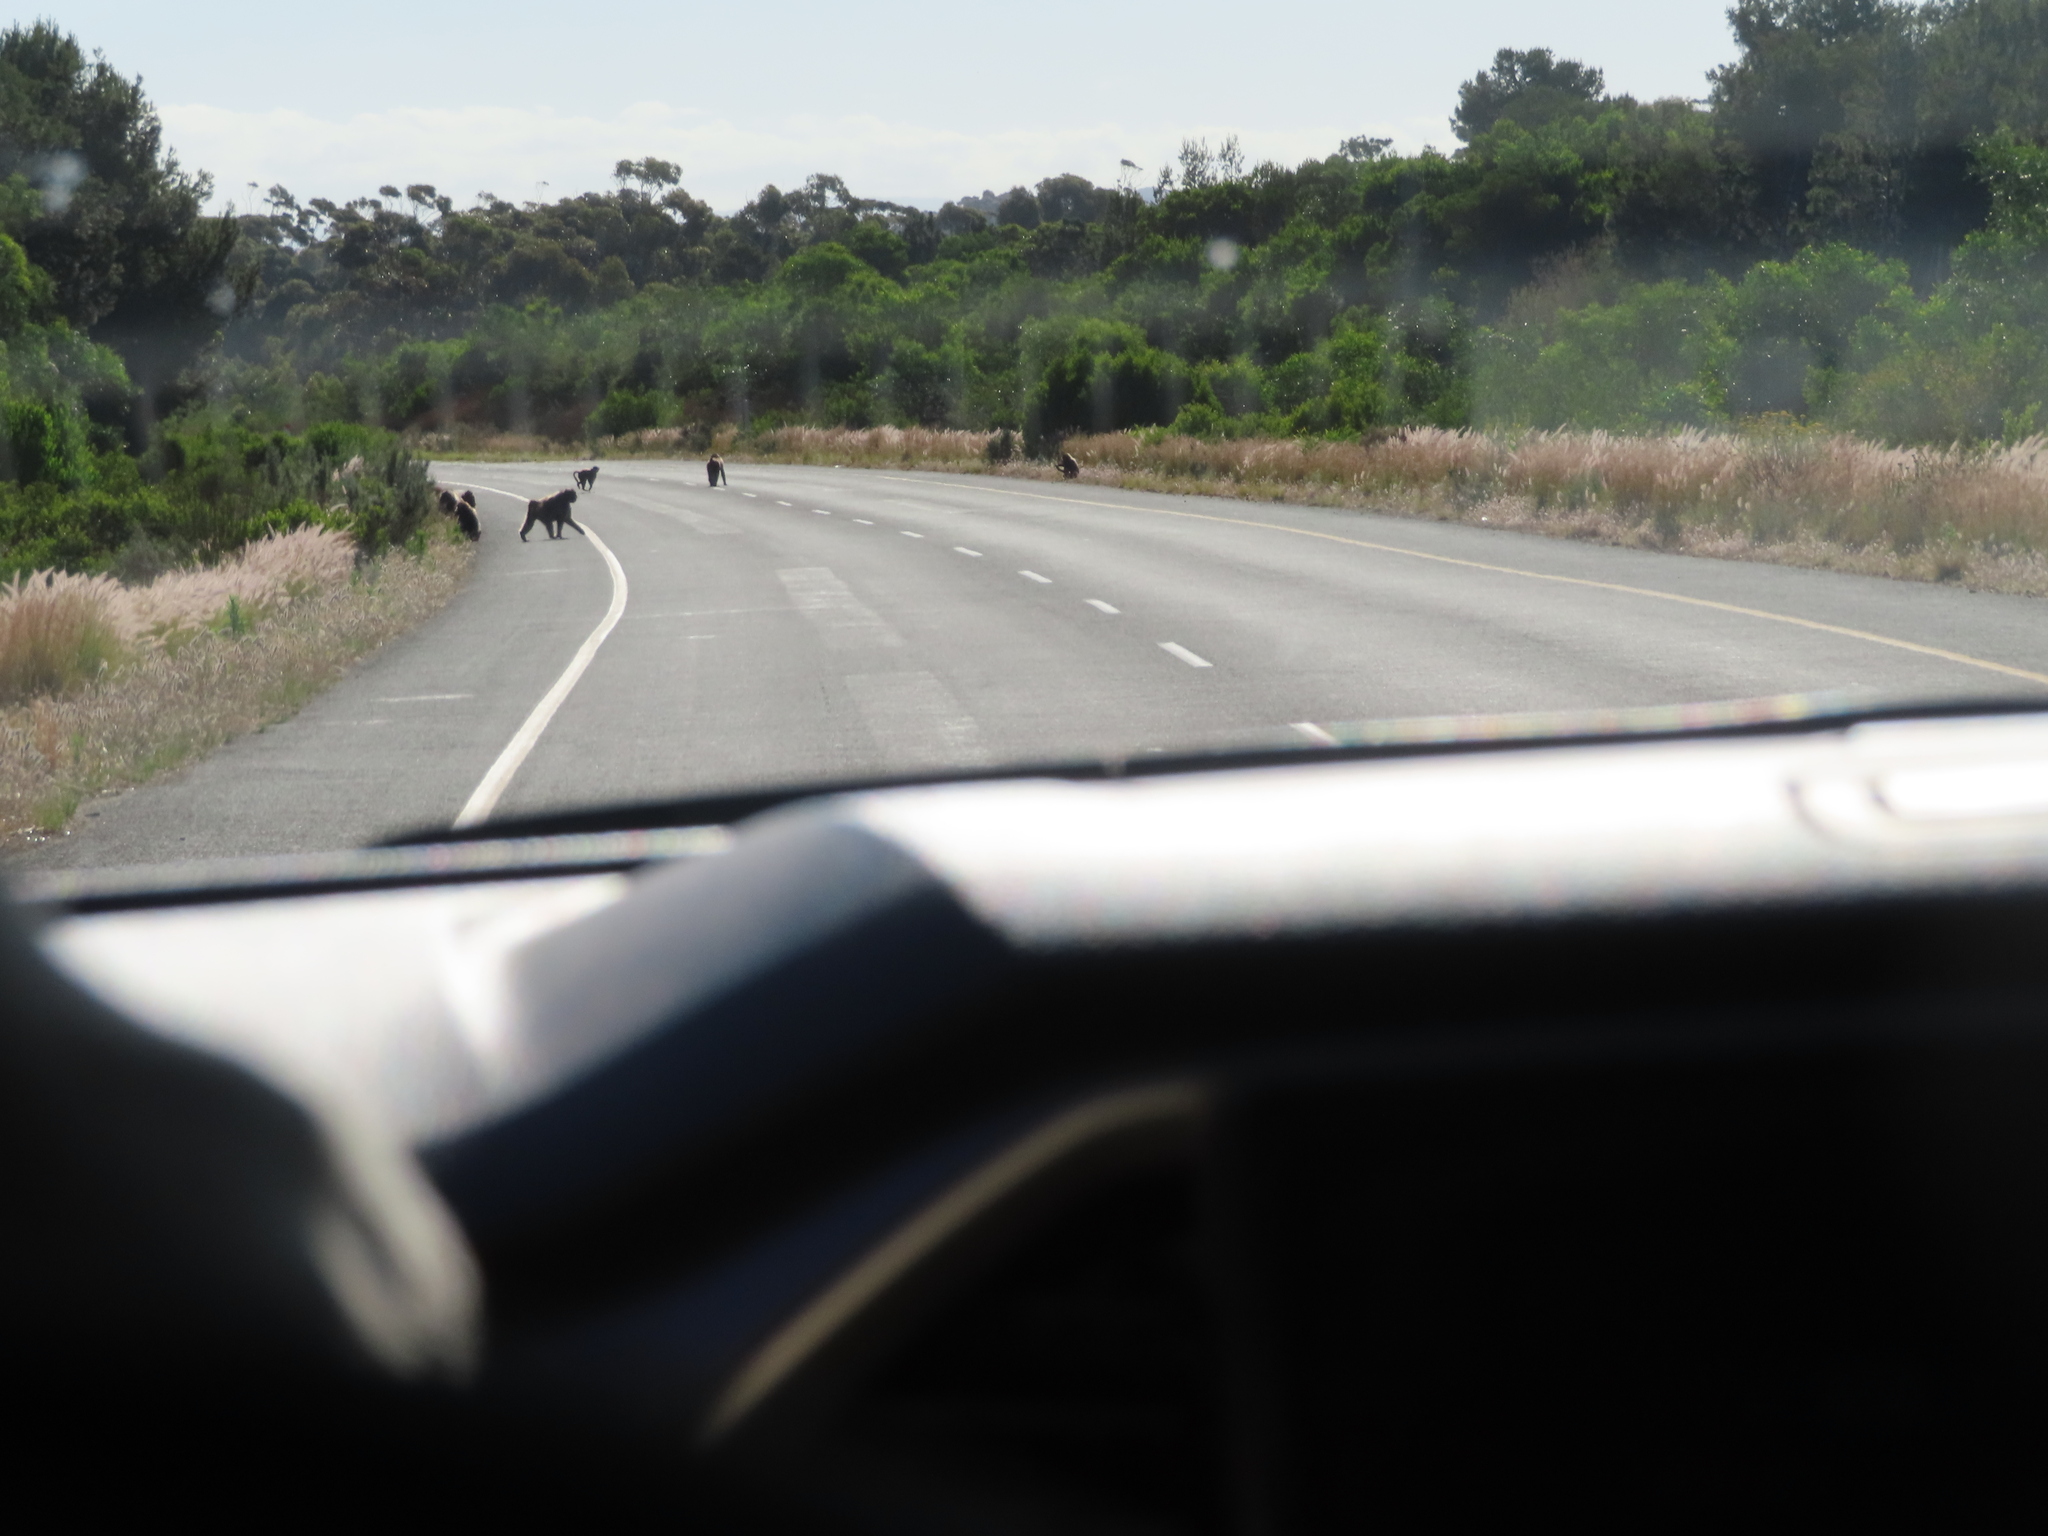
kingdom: Animalia
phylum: Chordata
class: Mammalia
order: Primates
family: Cercopithecidae
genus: Papio
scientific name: Papio ursinus
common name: Chacma baboon
